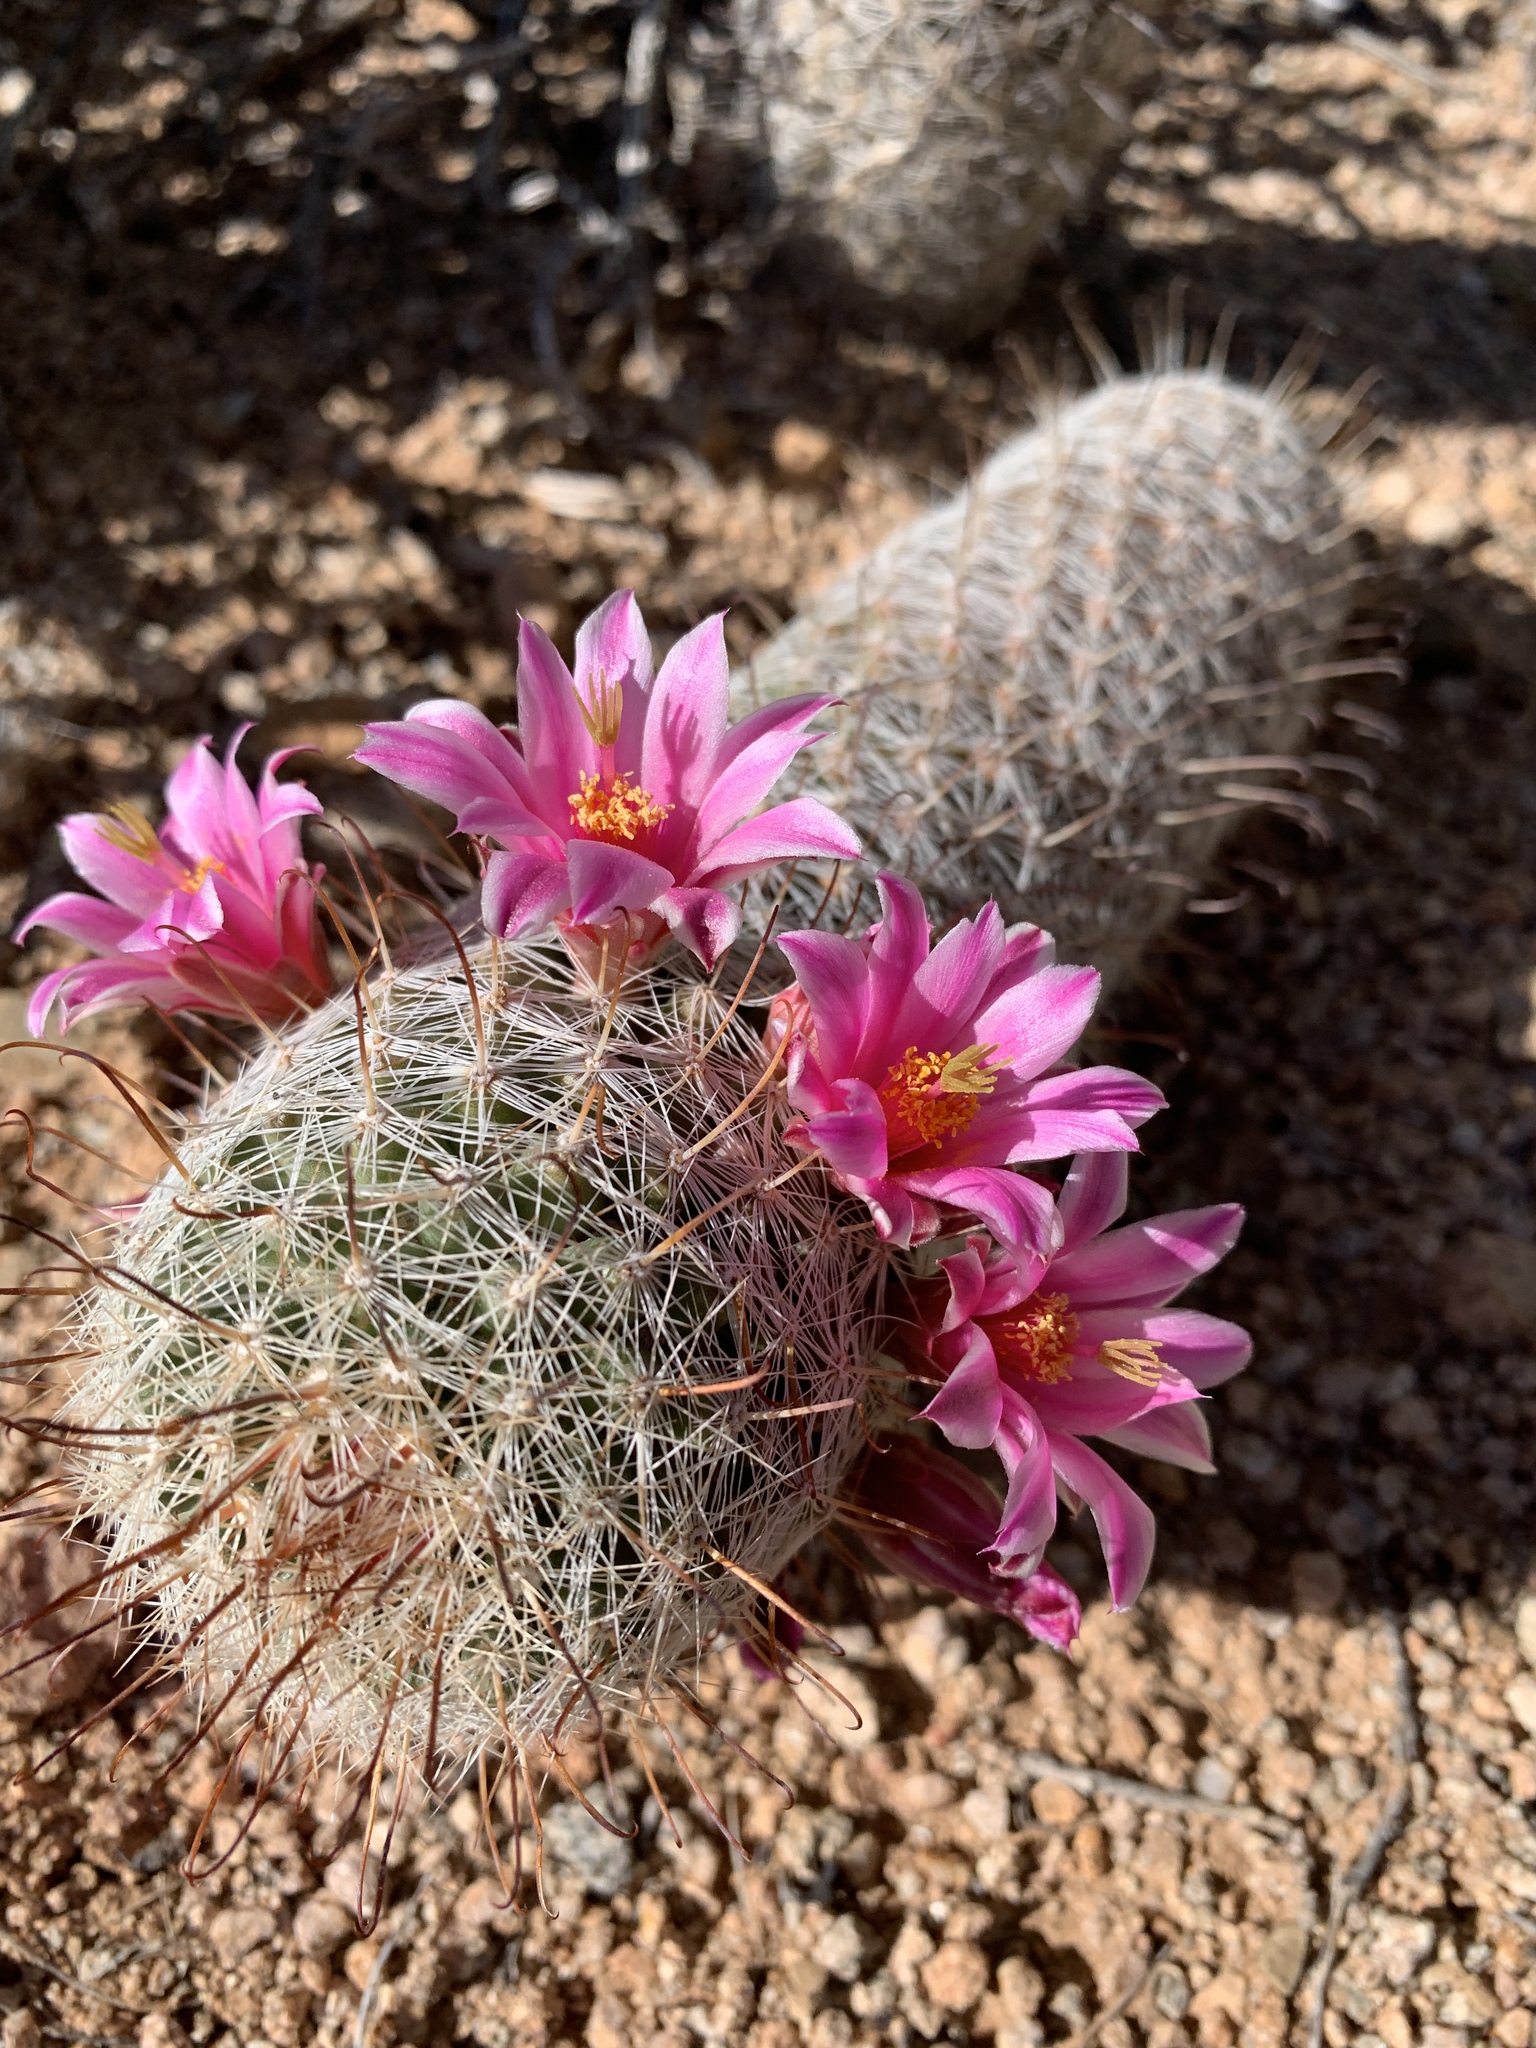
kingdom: Plantae
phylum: Tracheophyta
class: Magnoliopsida
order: Caryophyllales
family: Cactaceae
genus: Cochemiea
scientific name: Cochemiea grahamii
